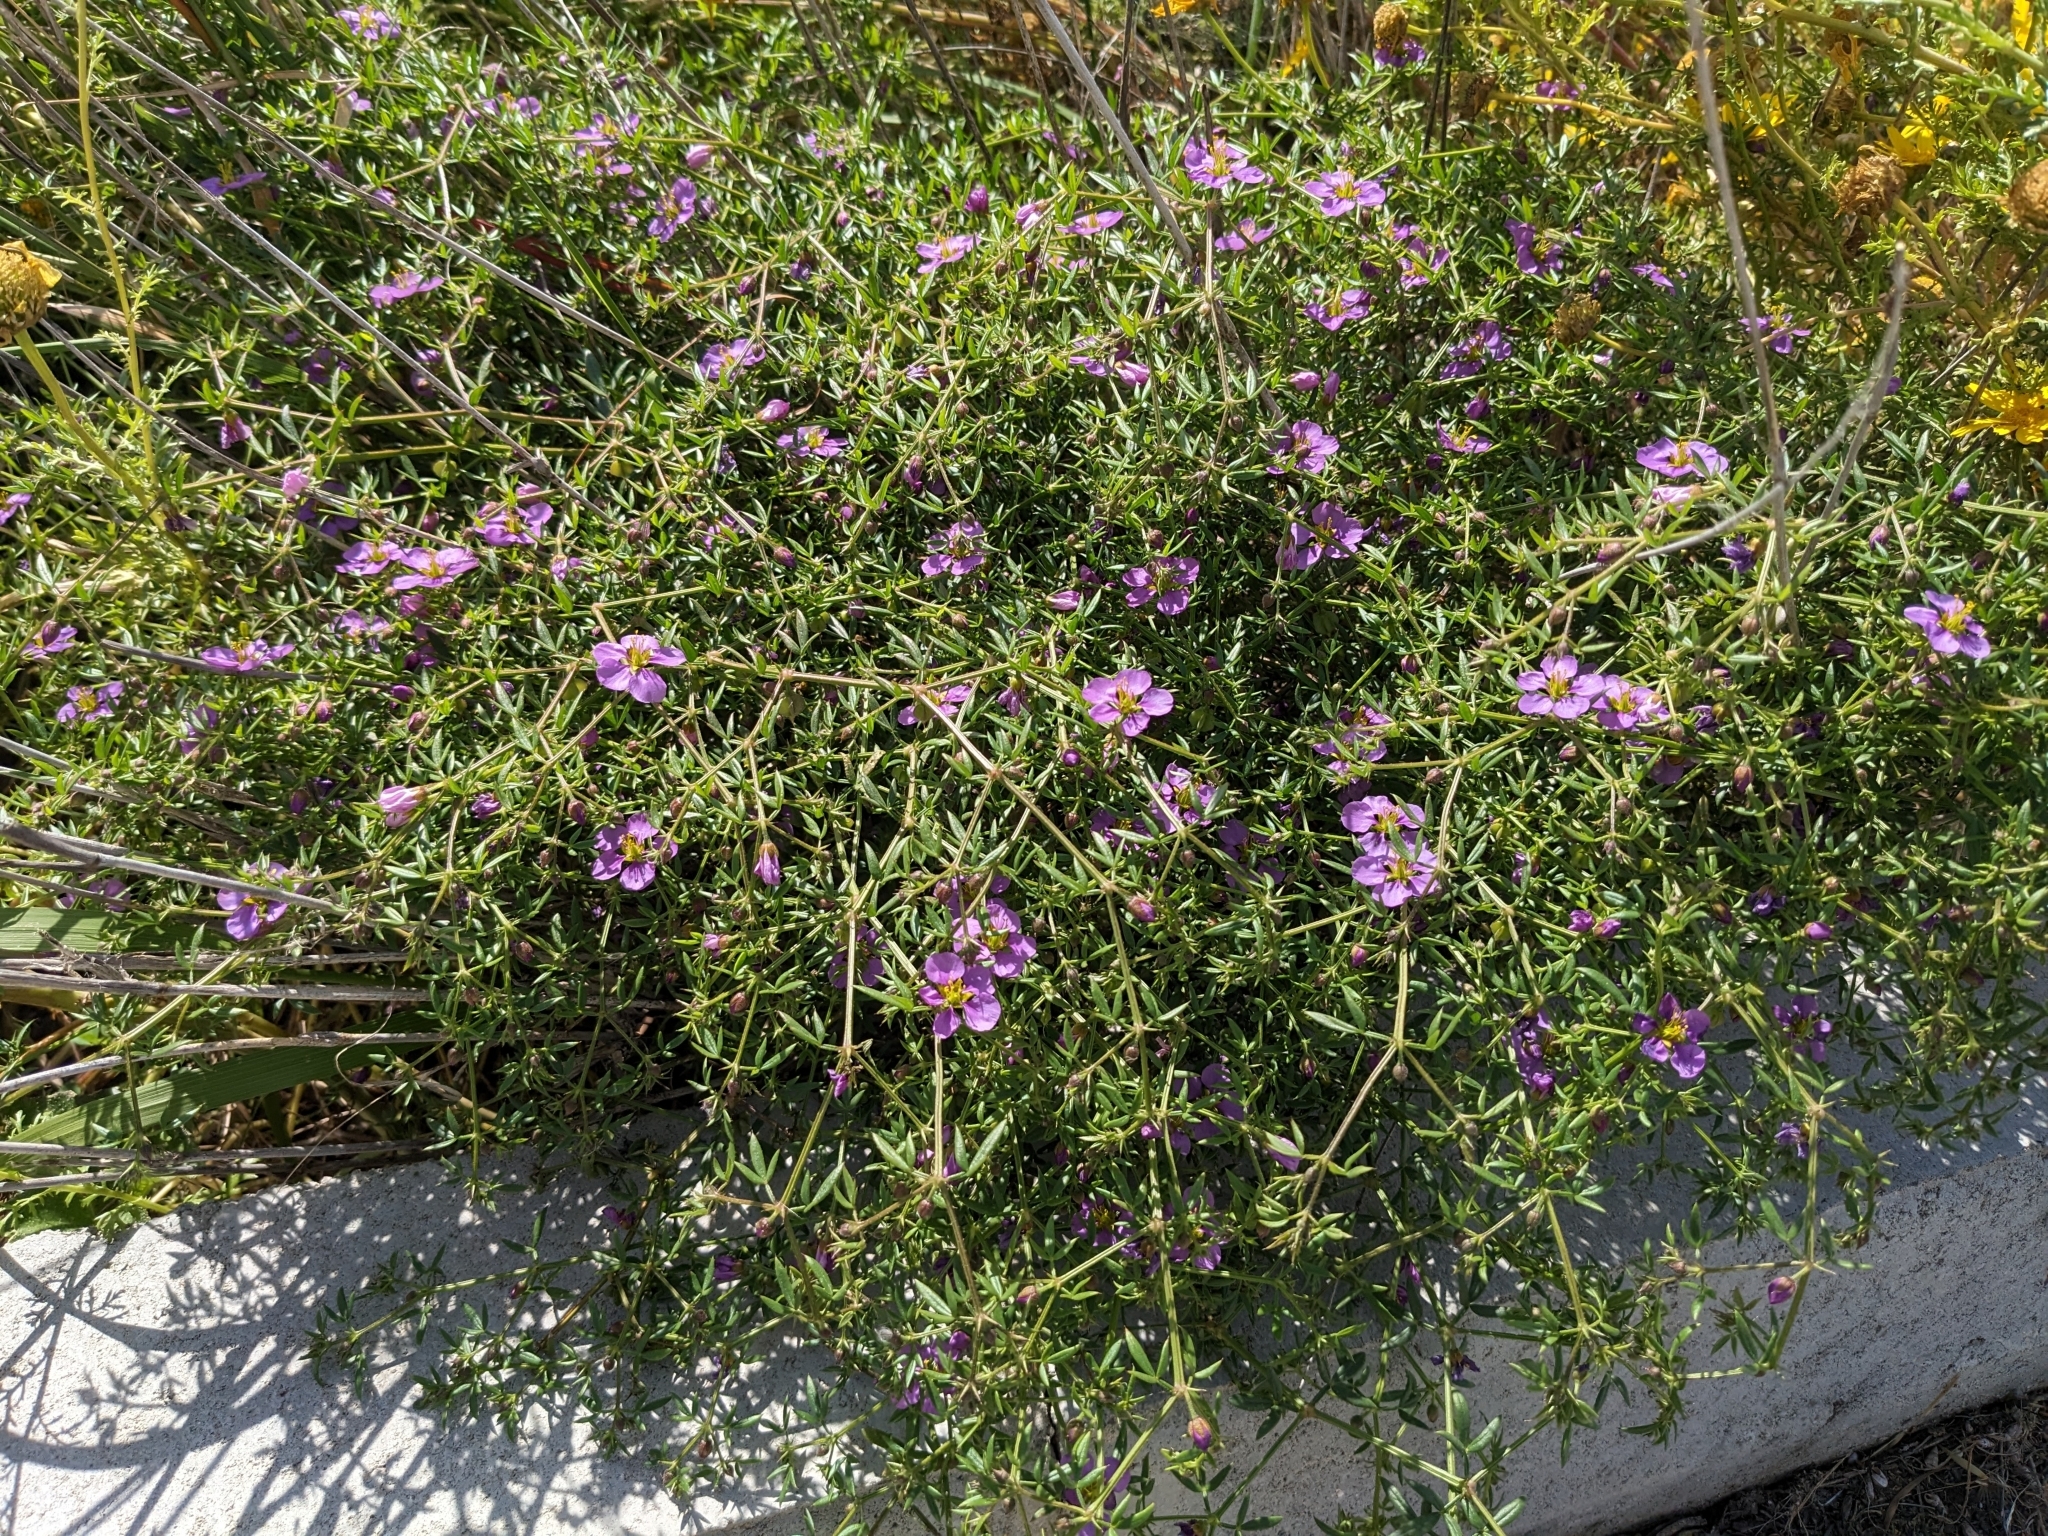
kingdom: Plantae
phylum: Tracheophyta
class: Magnoliopsida
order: Zygophyllales
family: Zygophyllaceae
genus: Fagonia
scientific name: Fagonia cretica
